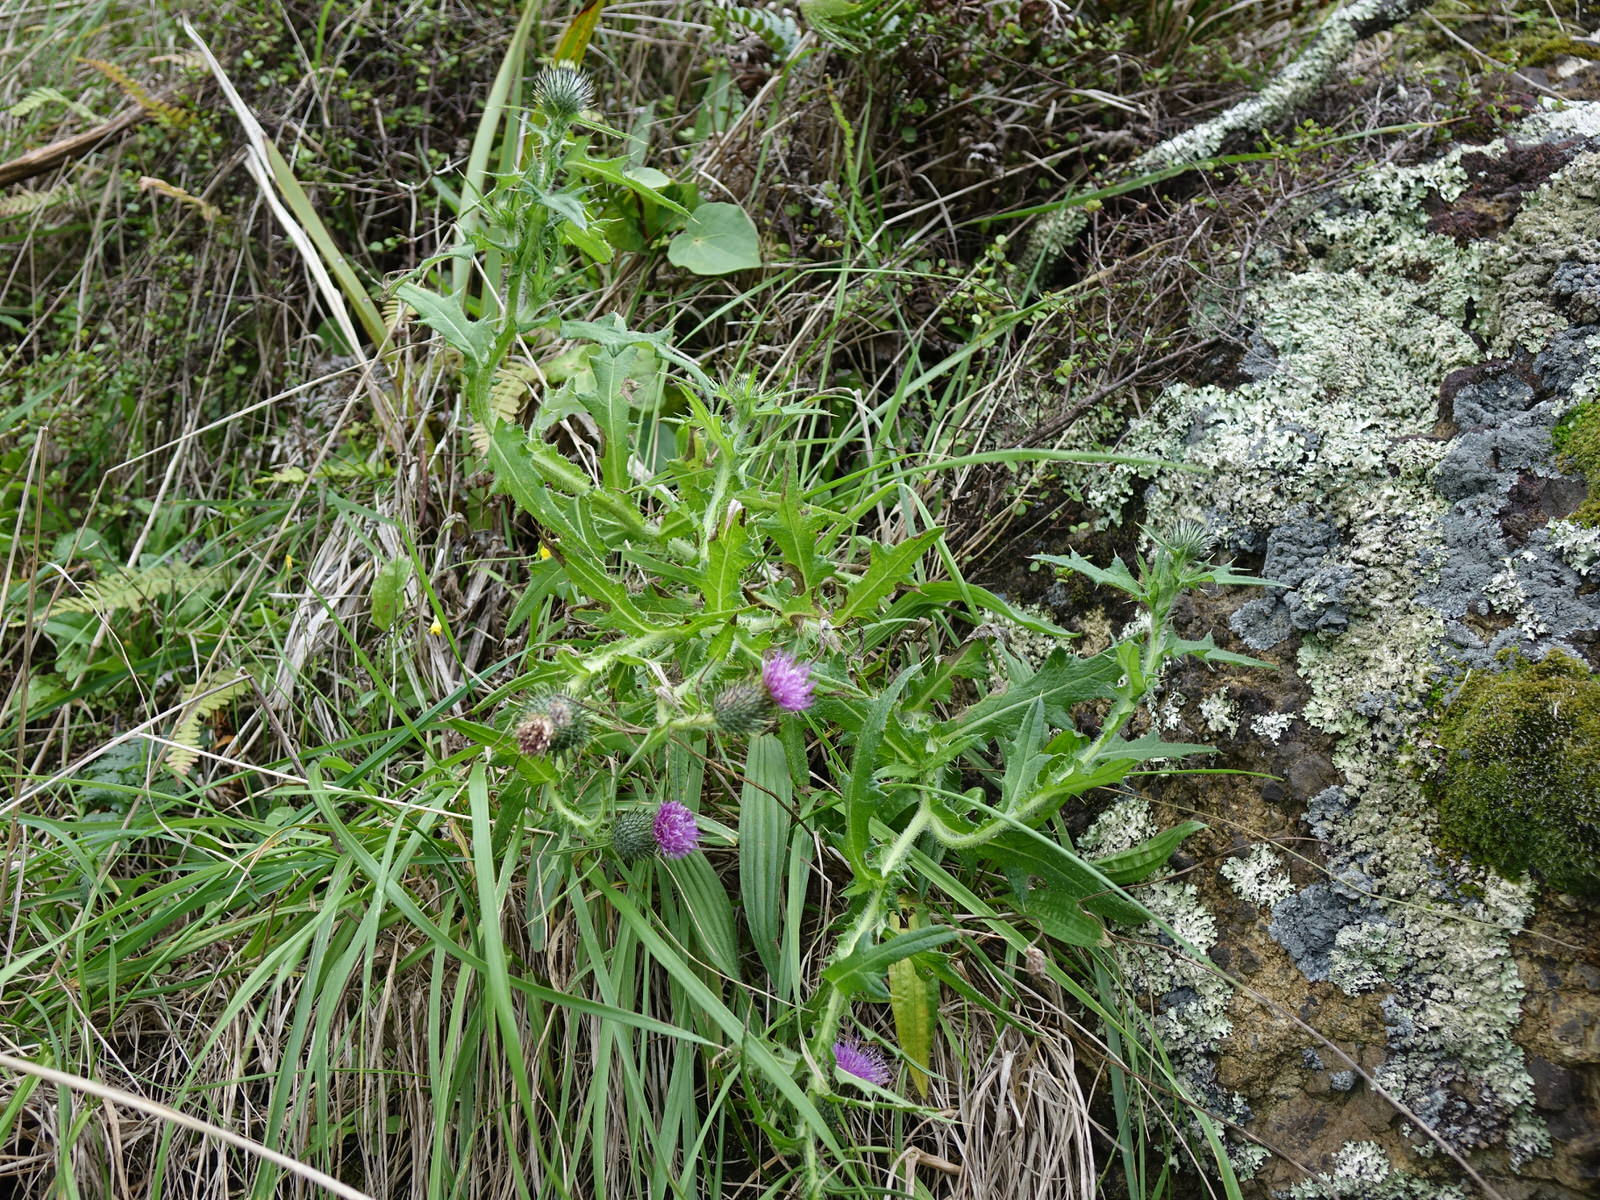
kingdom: Plantae
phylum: Tracheophyta
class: Magnoliopsida
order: Asterales
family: Asteraceae
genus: Cirsium
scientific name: Cirsium vulgare
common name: Bull thistle
